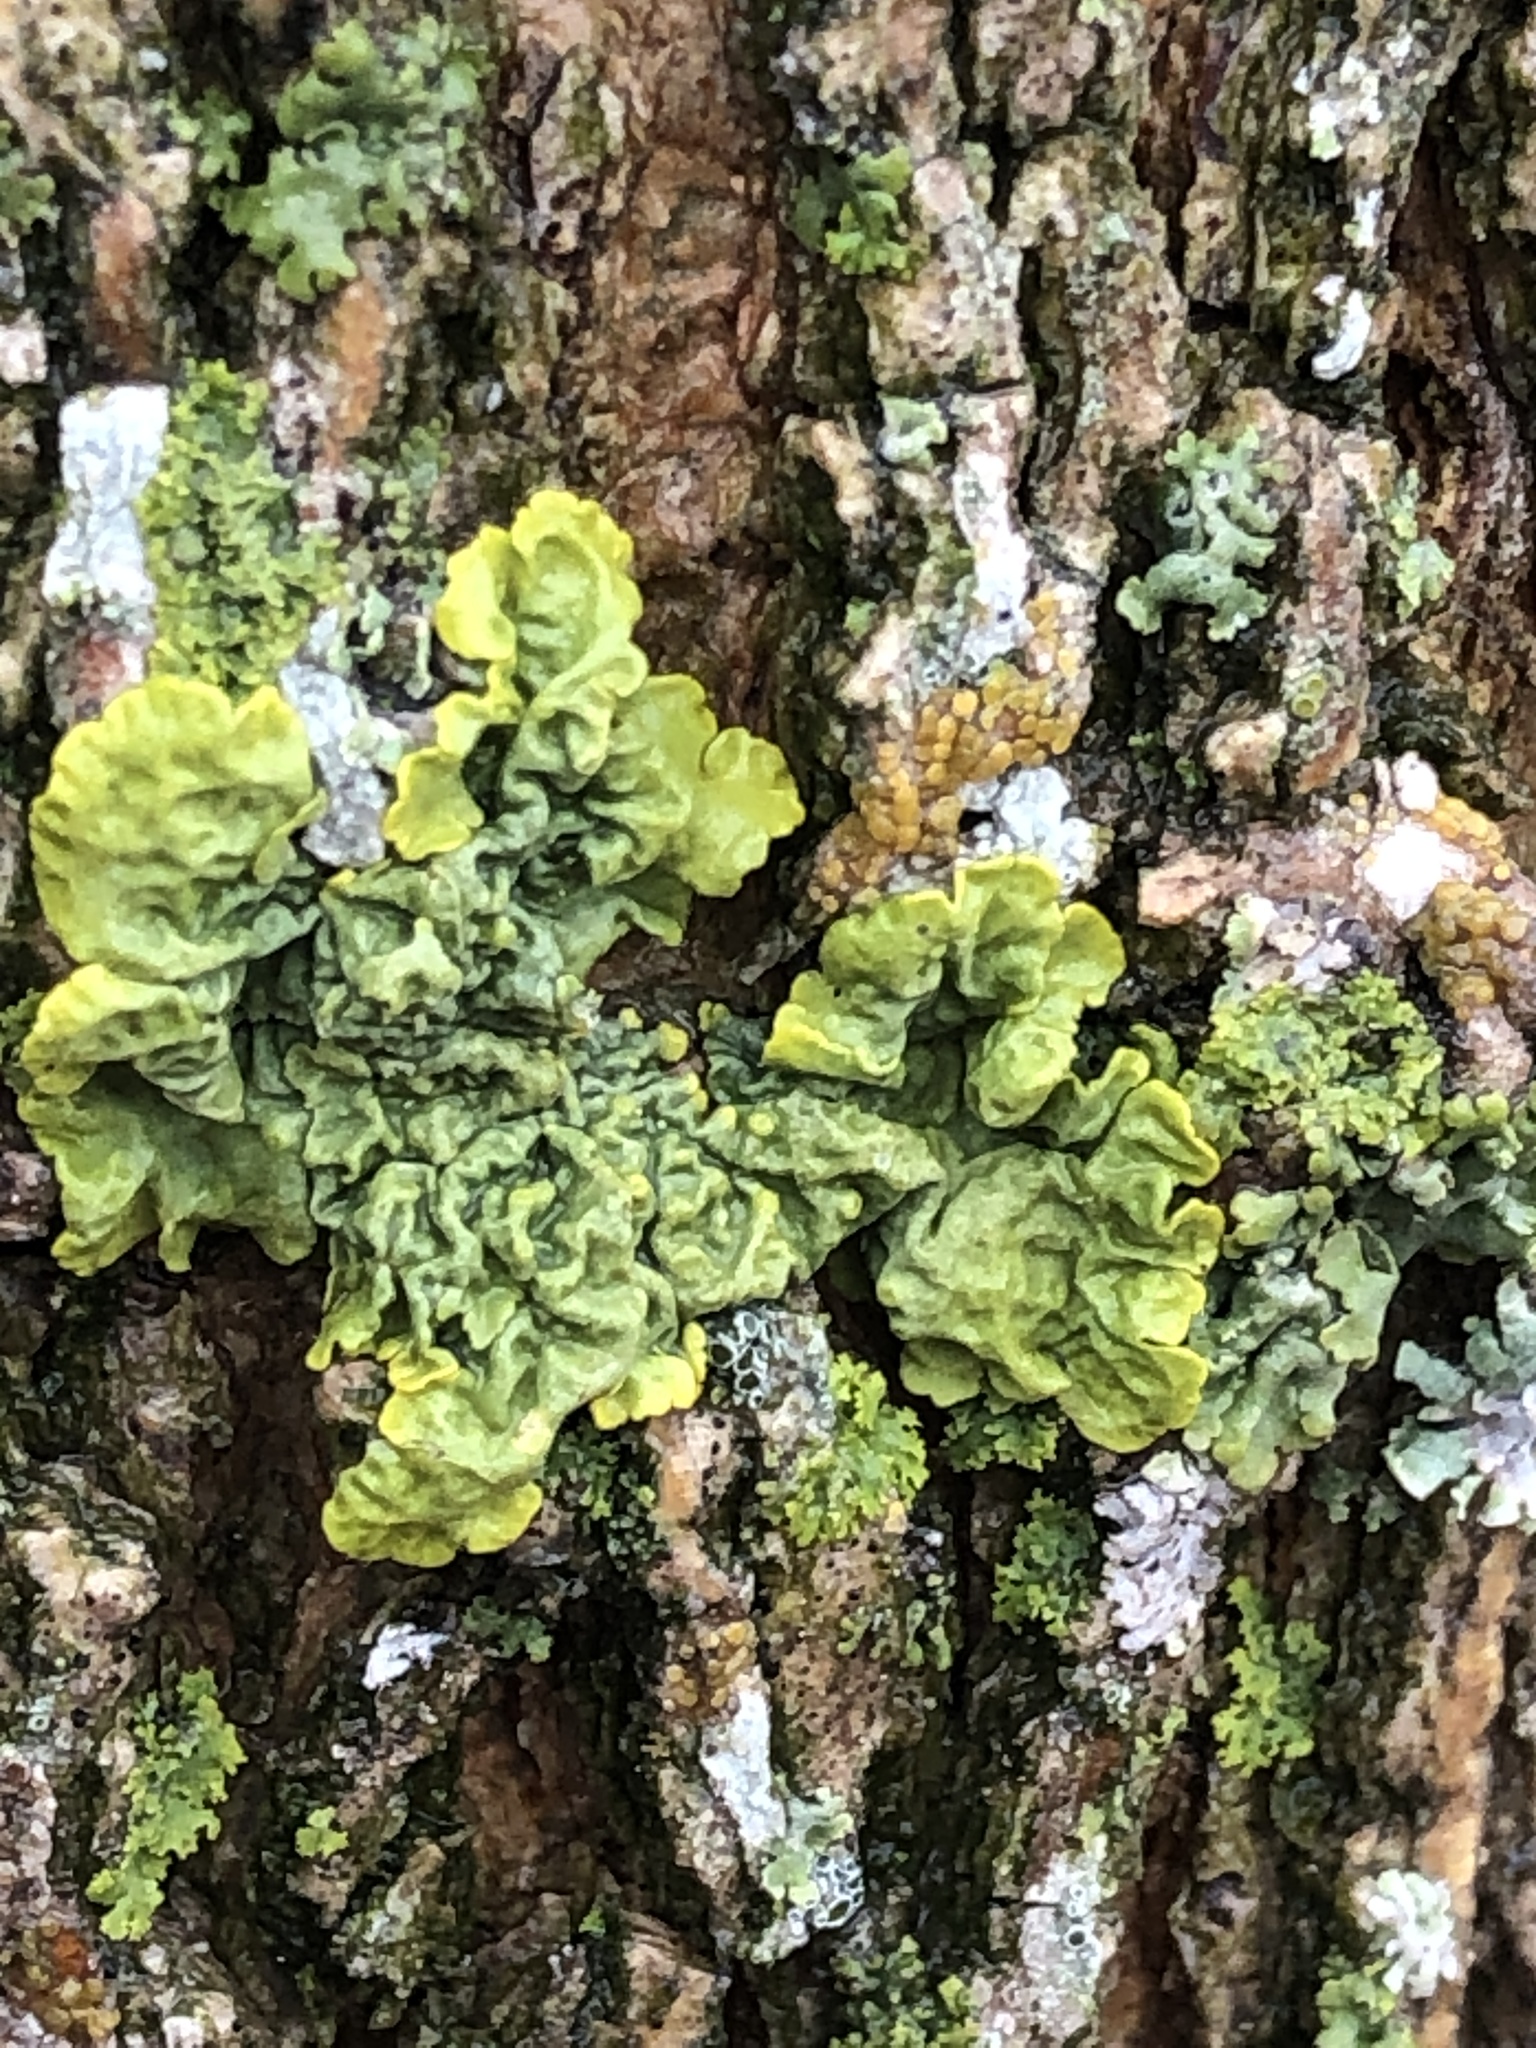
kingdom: Fungi
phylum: Ascomycota
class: Lecanoromycetes
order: Teloschistales
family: Teloschistaceae
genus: Xanthoria
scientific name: Xanthoria parietina
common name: Common orange lichen
